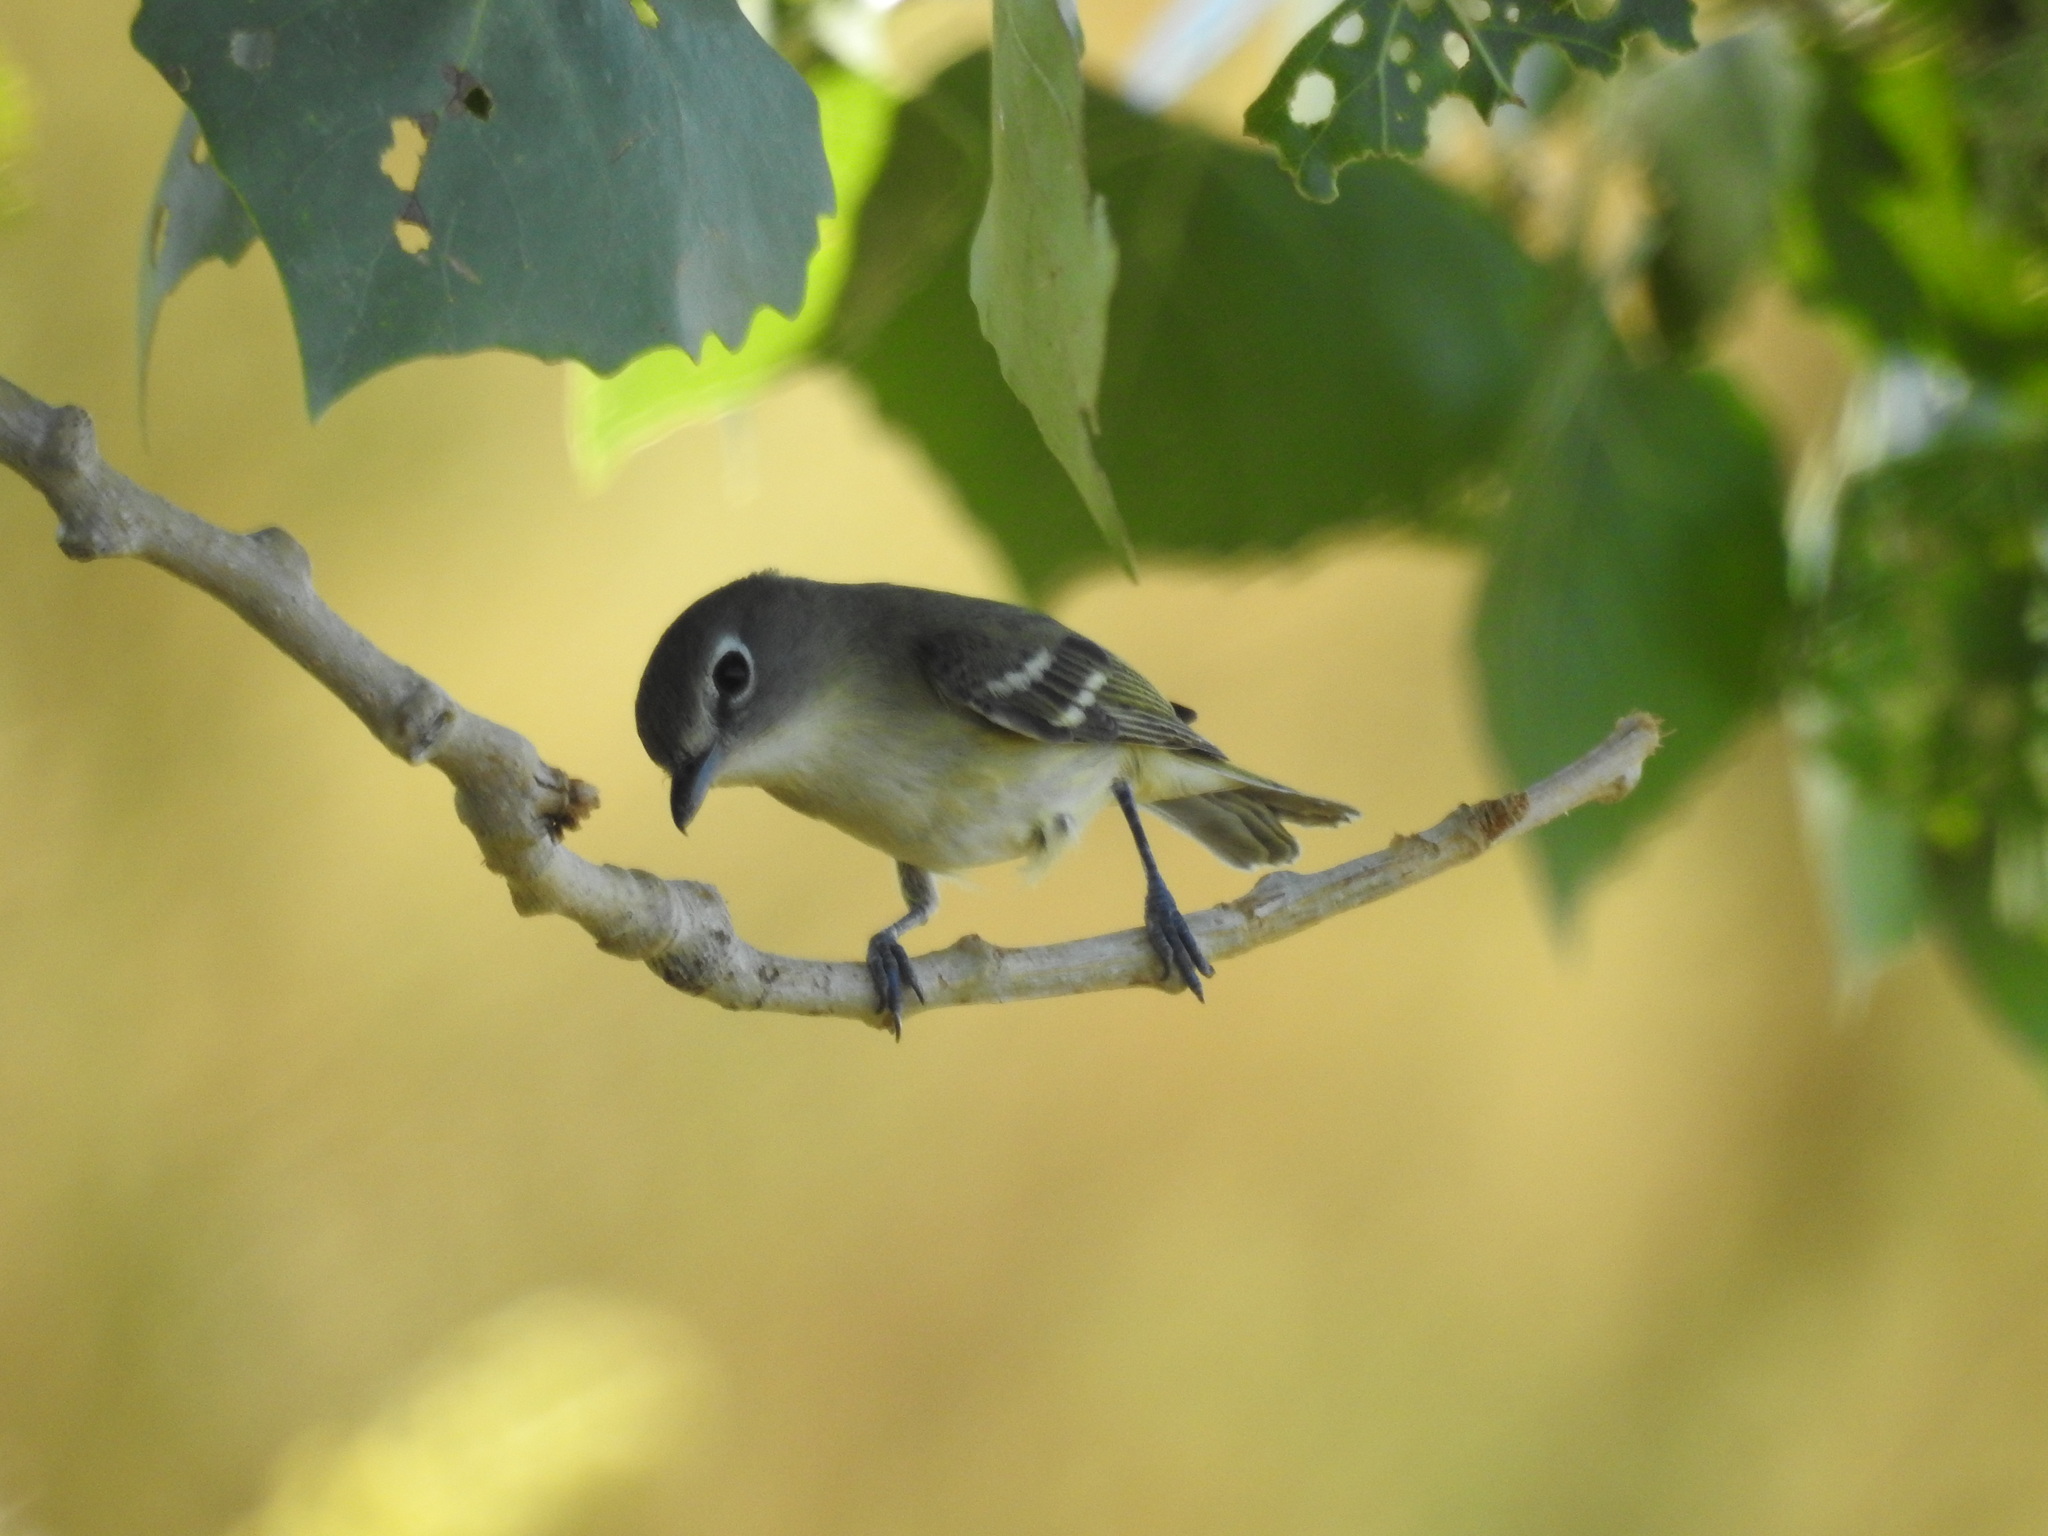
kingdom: Animalia
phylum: Chordata
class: Aves
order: Passeriformes
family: Vireonidae
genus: Vireo
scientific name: Vireo cassinii
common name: Cassin's vireo
